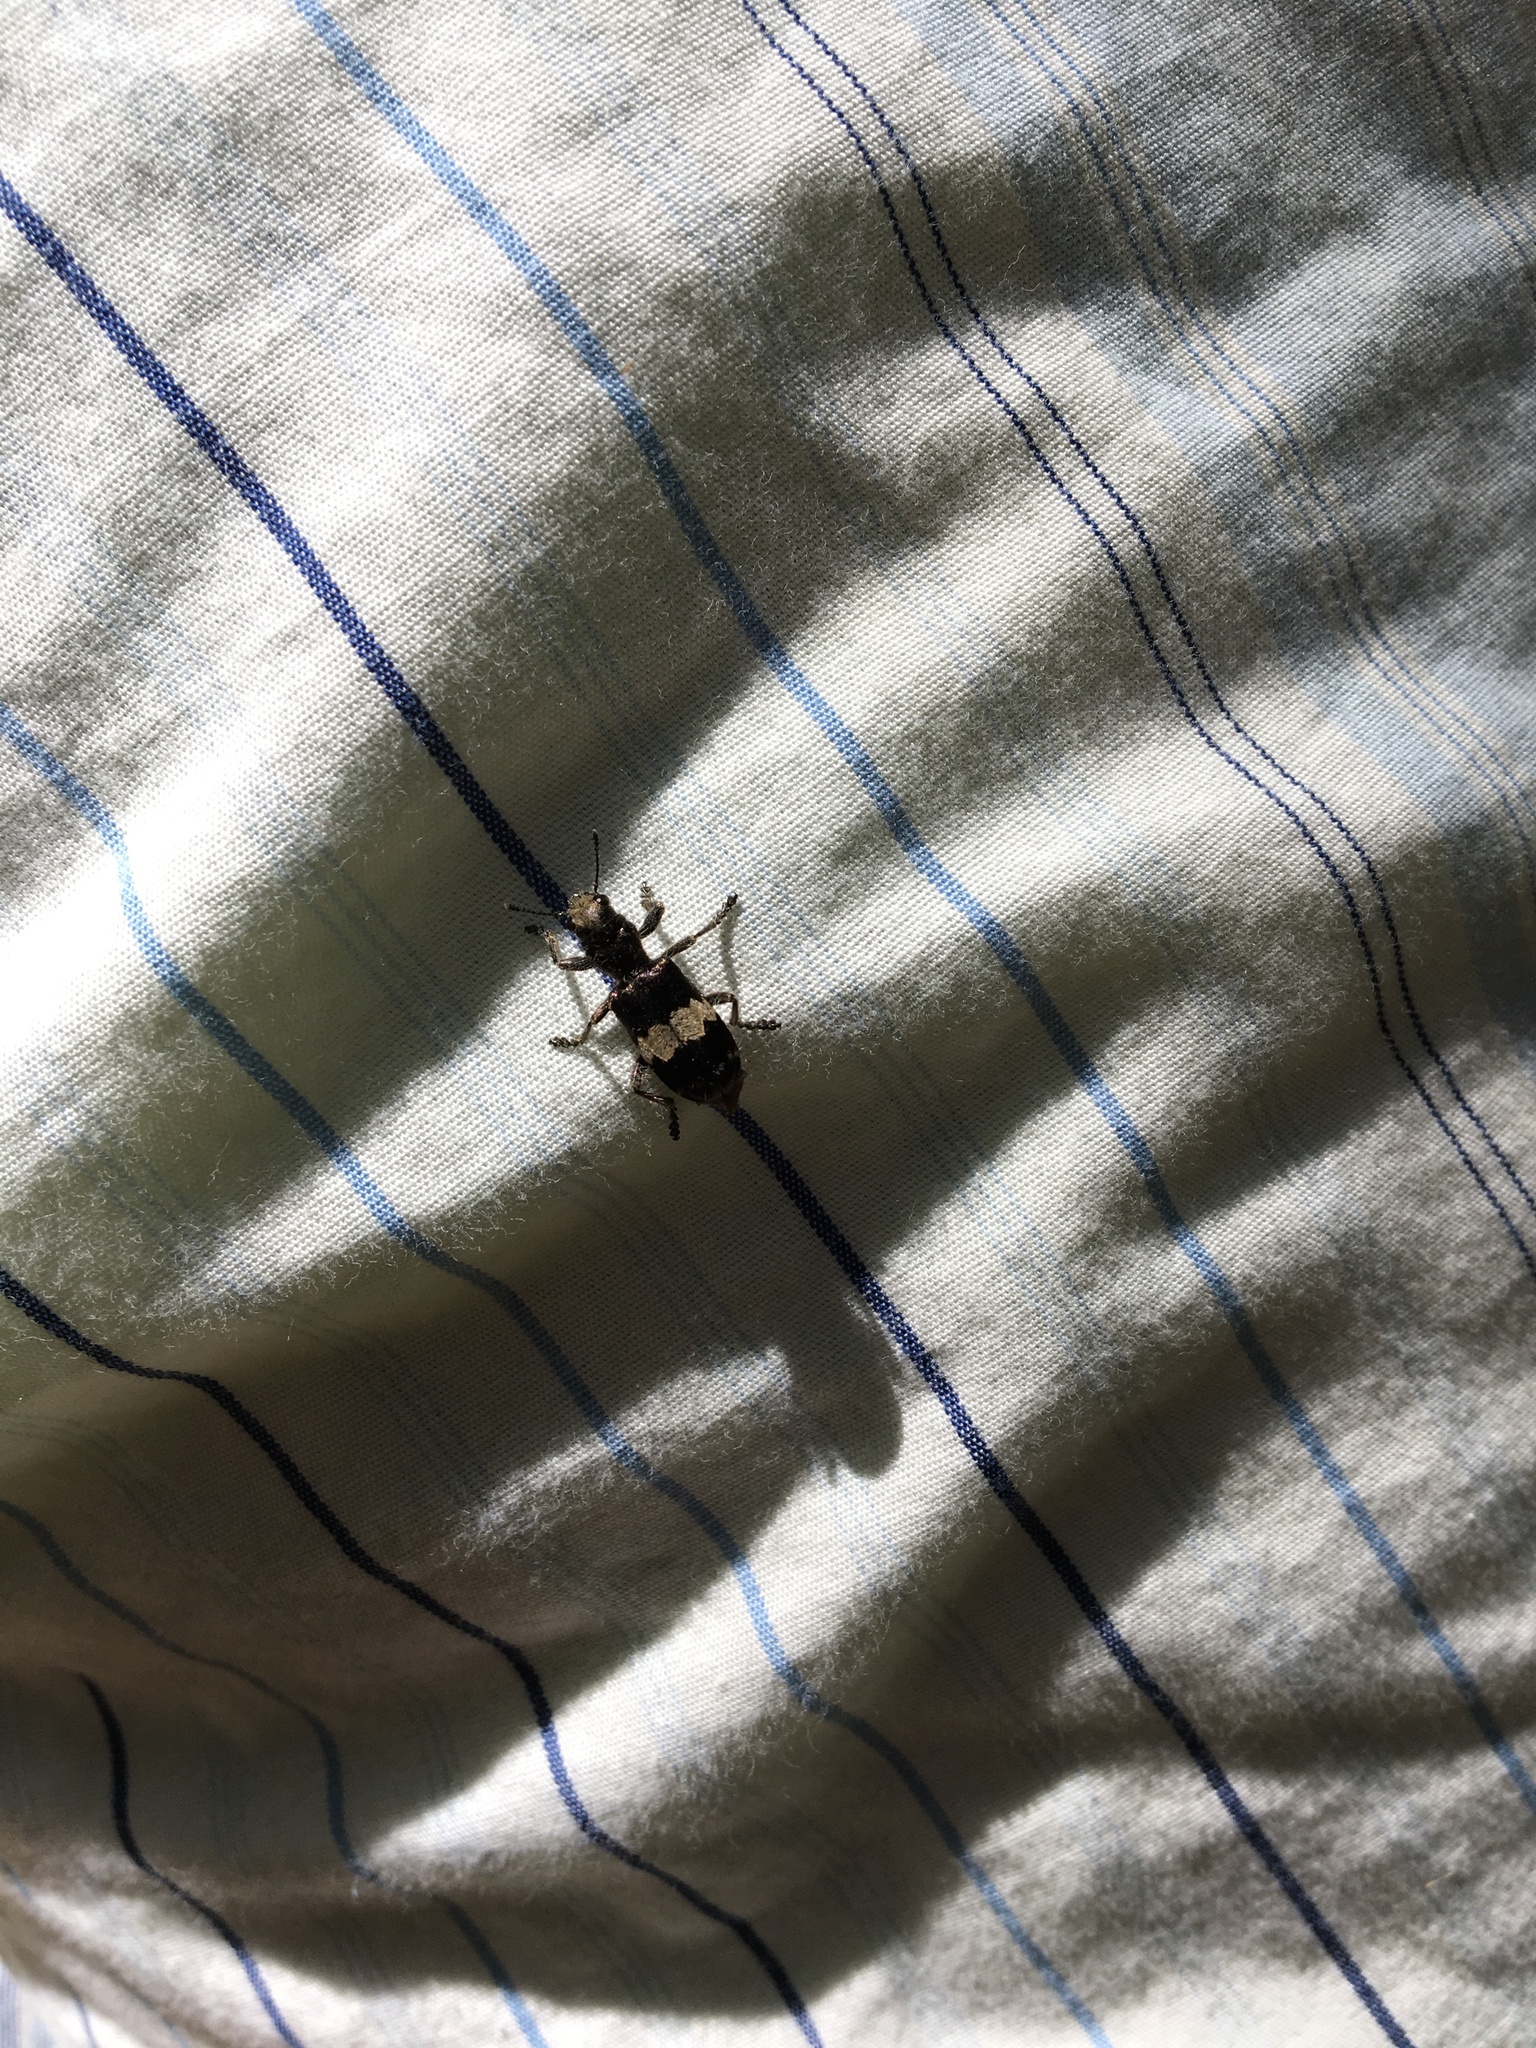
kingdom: Animalia
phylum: Arthropoda
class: Insecta
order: Coleoptera
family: Cleridae
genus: Enoclerus
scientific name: Enoclerus sphegeus
